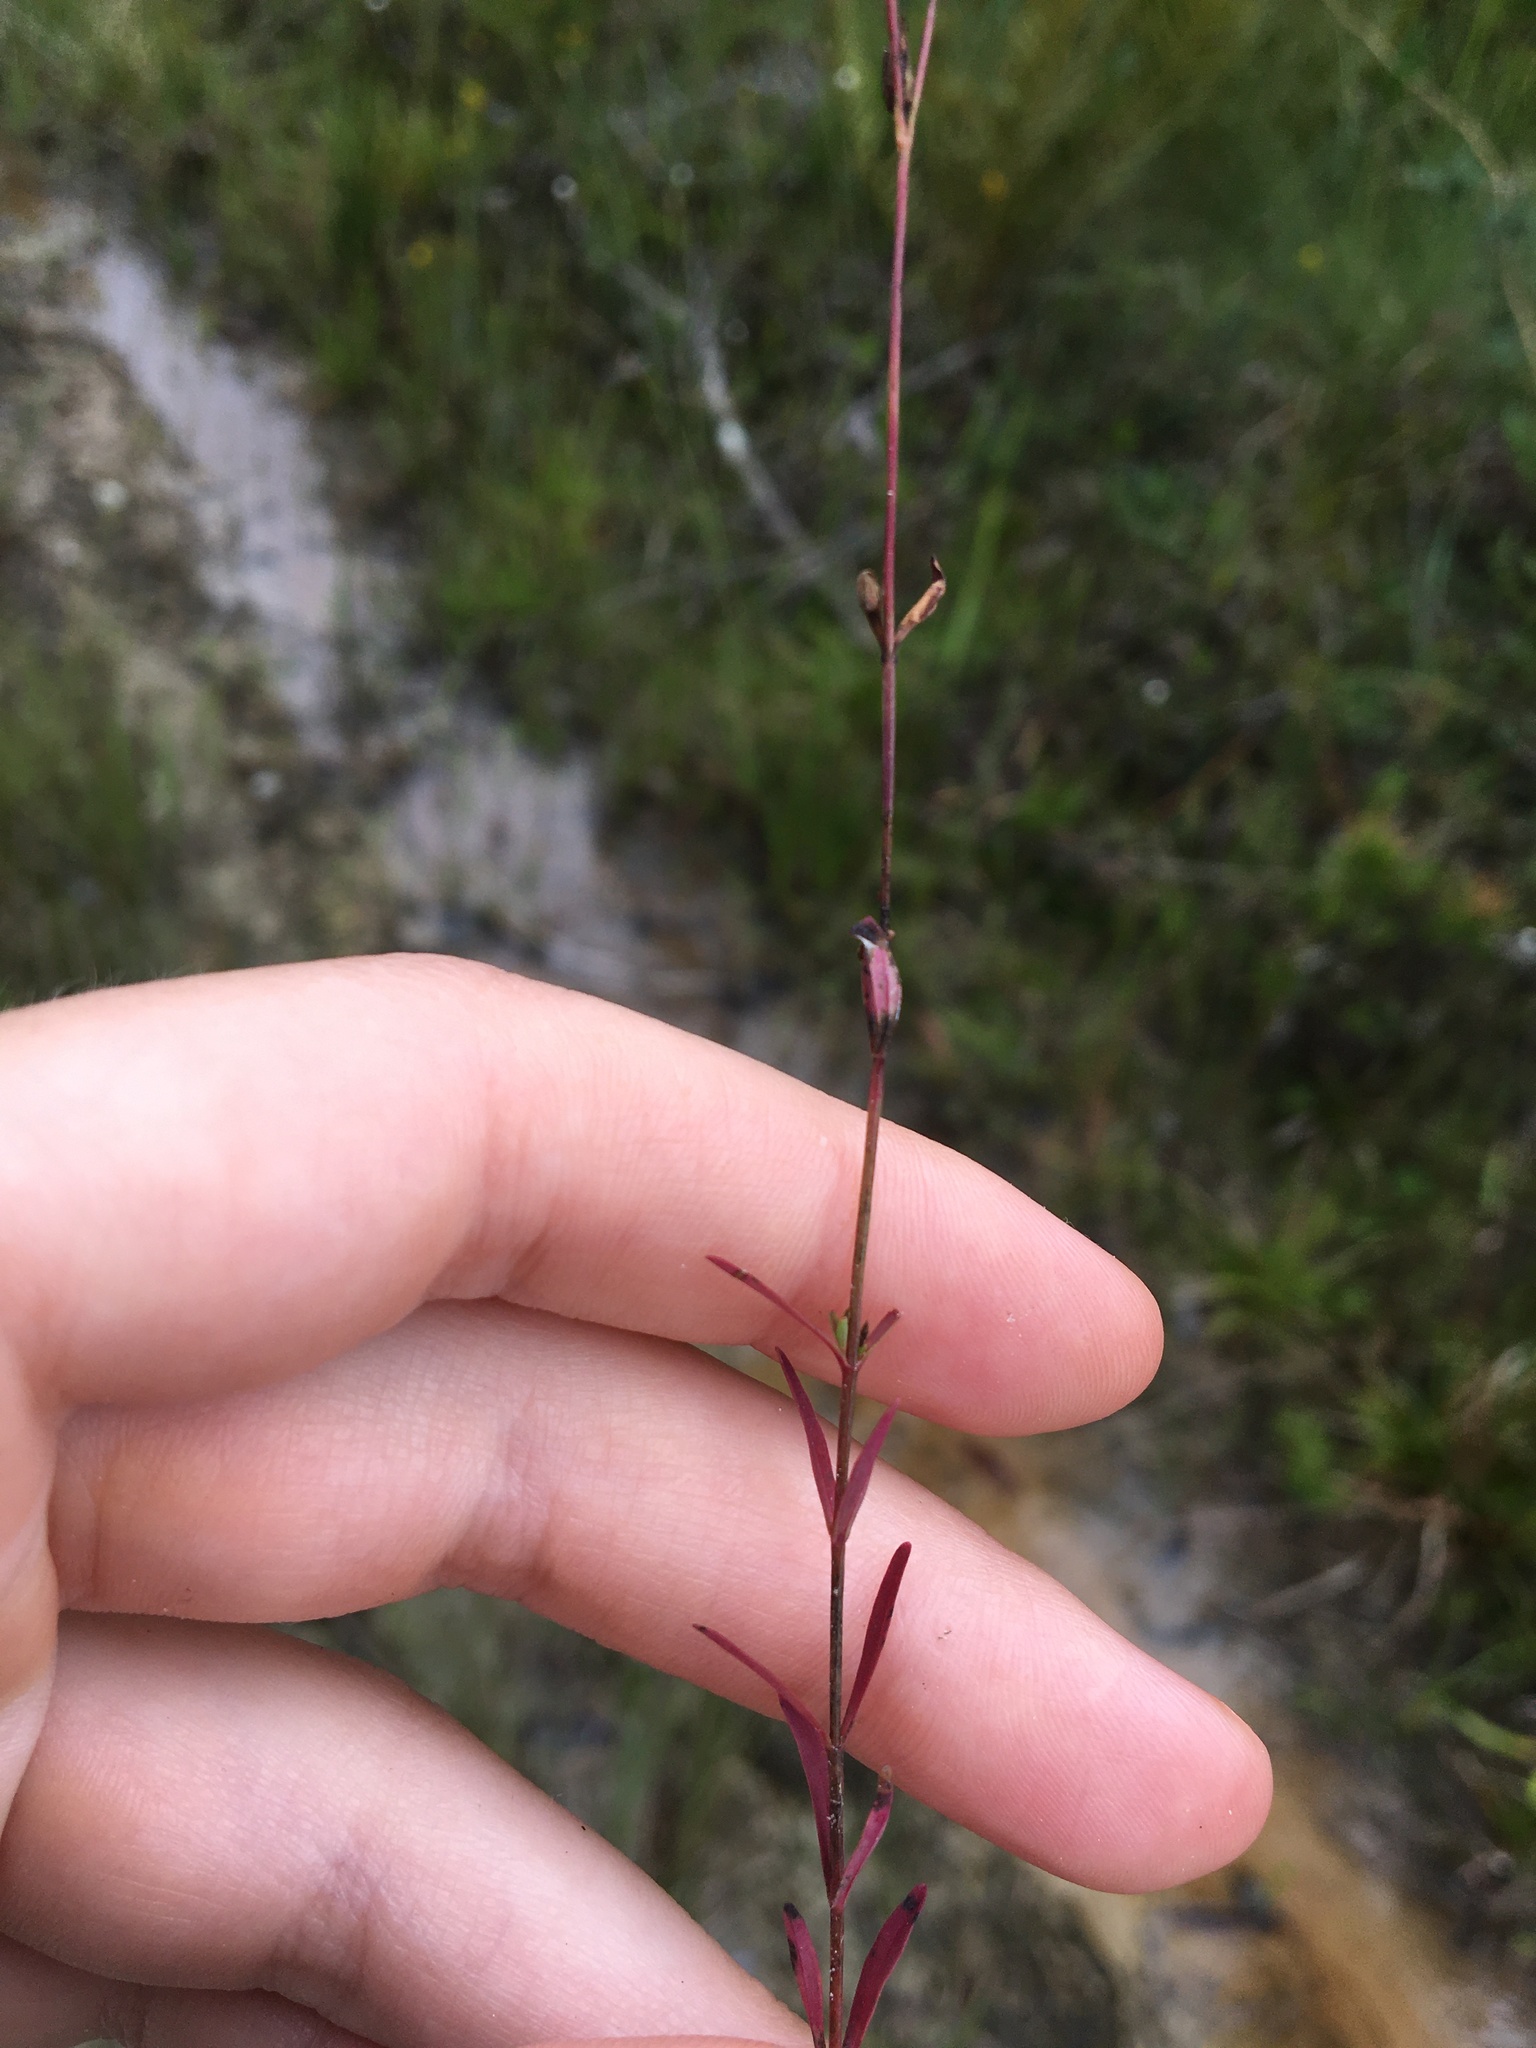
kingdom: Plantae
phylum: Tracheophyta
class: Magnoliopsida
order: Malpighiales
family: Hypericaceae
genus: Hypericum
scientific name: Hypericum drummondii
